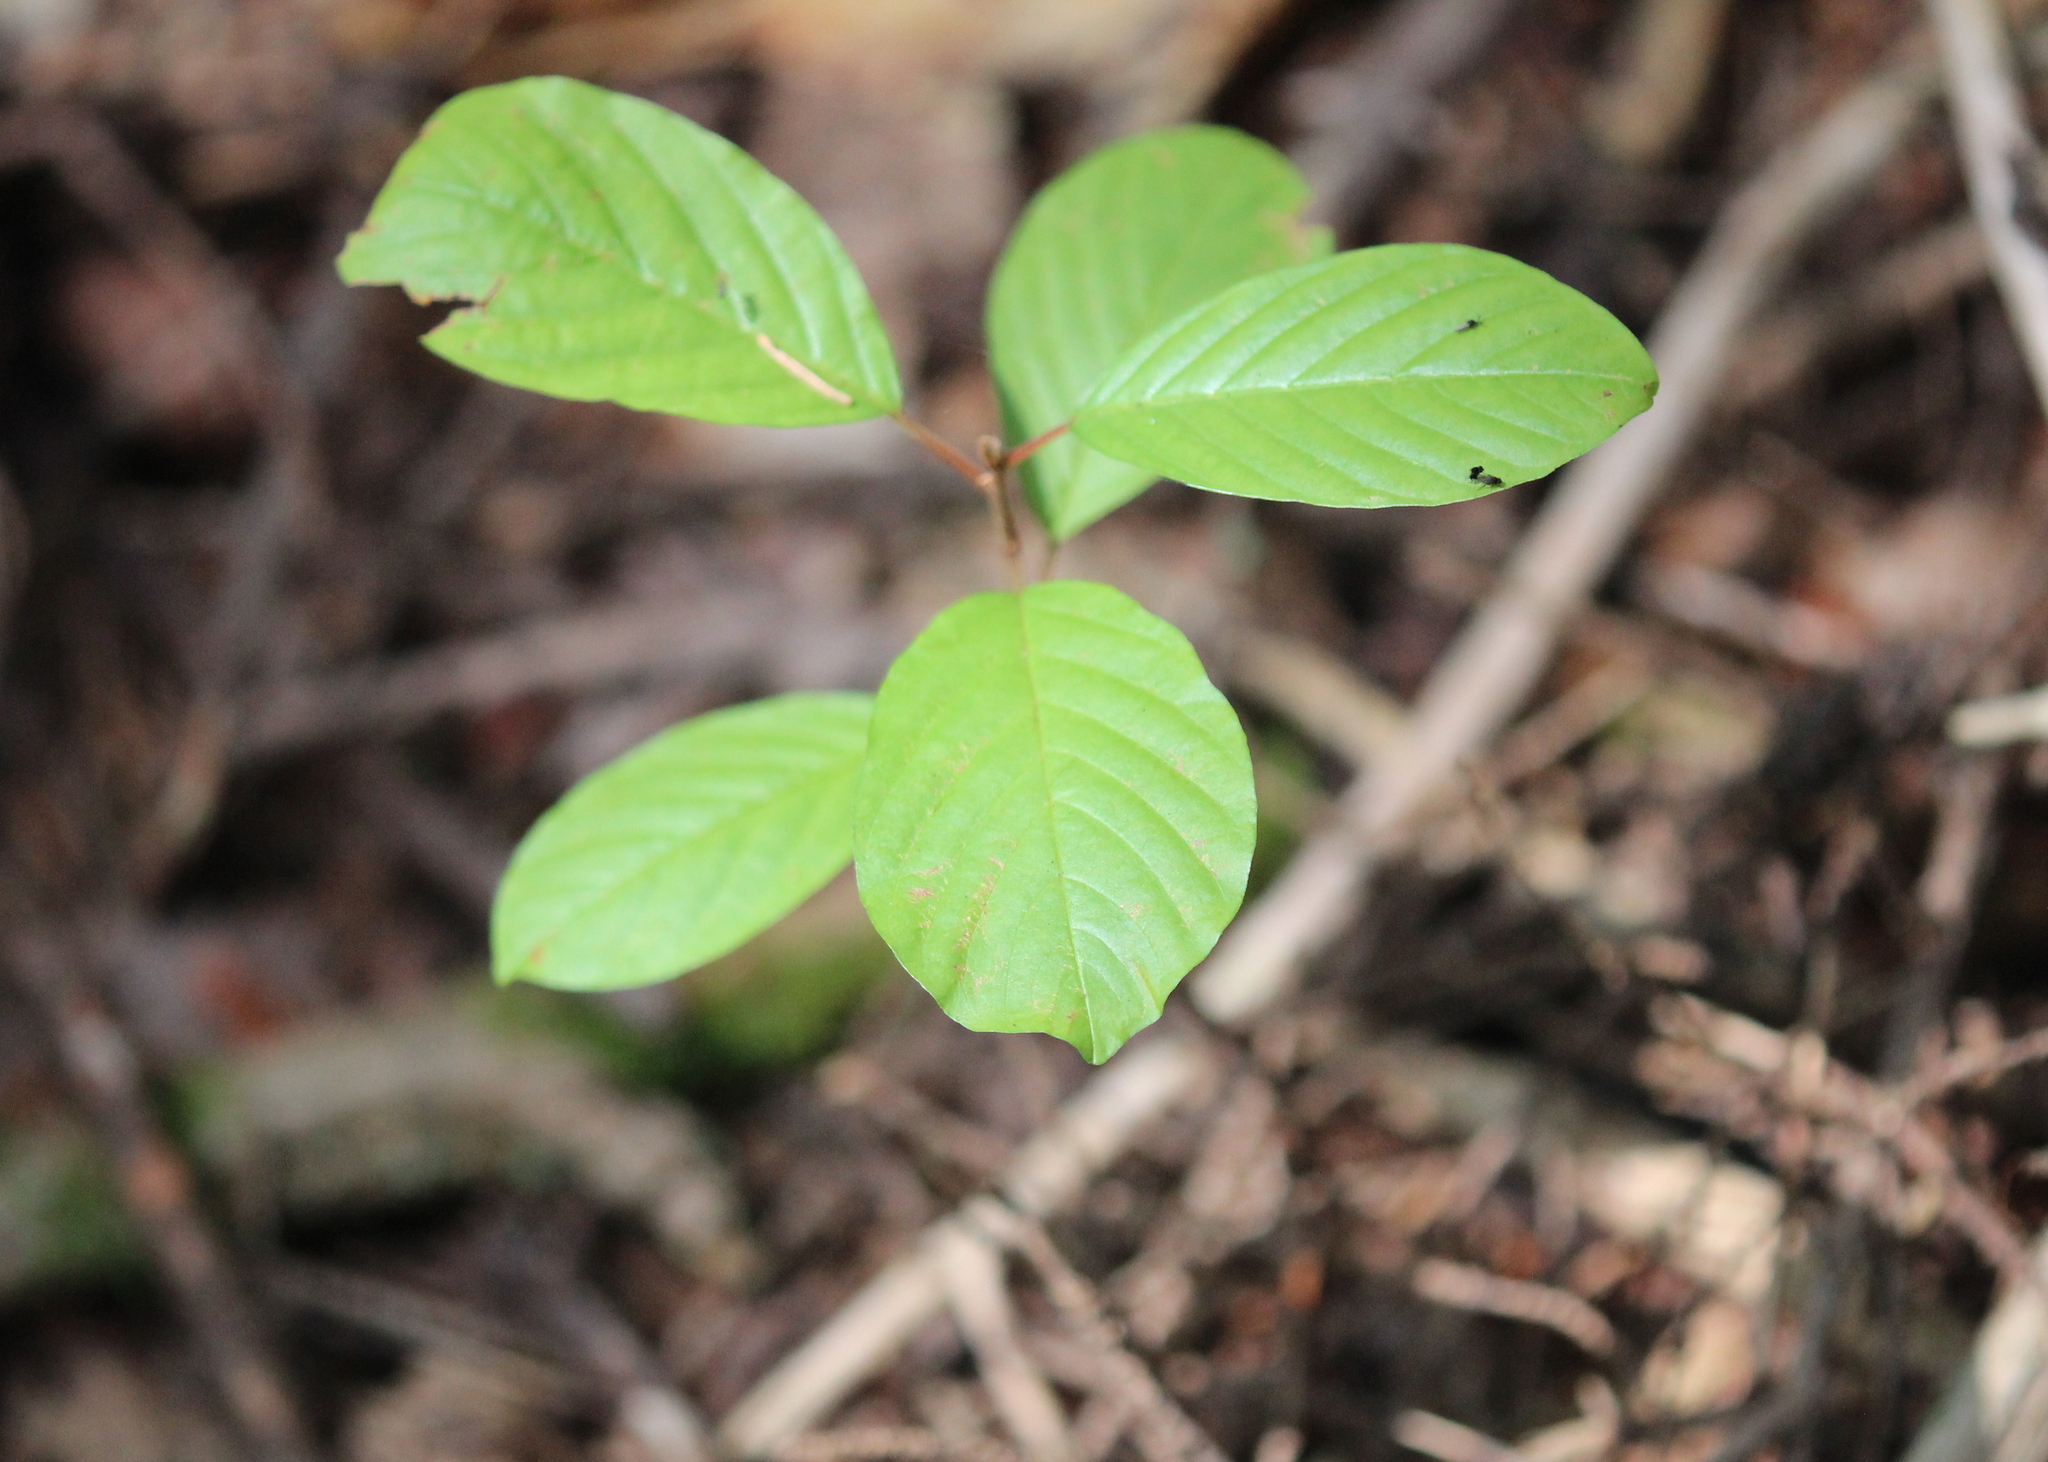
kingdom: Plantae
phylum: Tracheophyta
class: Magnoliopsida
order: Rosales
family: Rhamnaceae
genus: Frangula
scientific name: Frangula alnus
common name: Alder buckthorn
